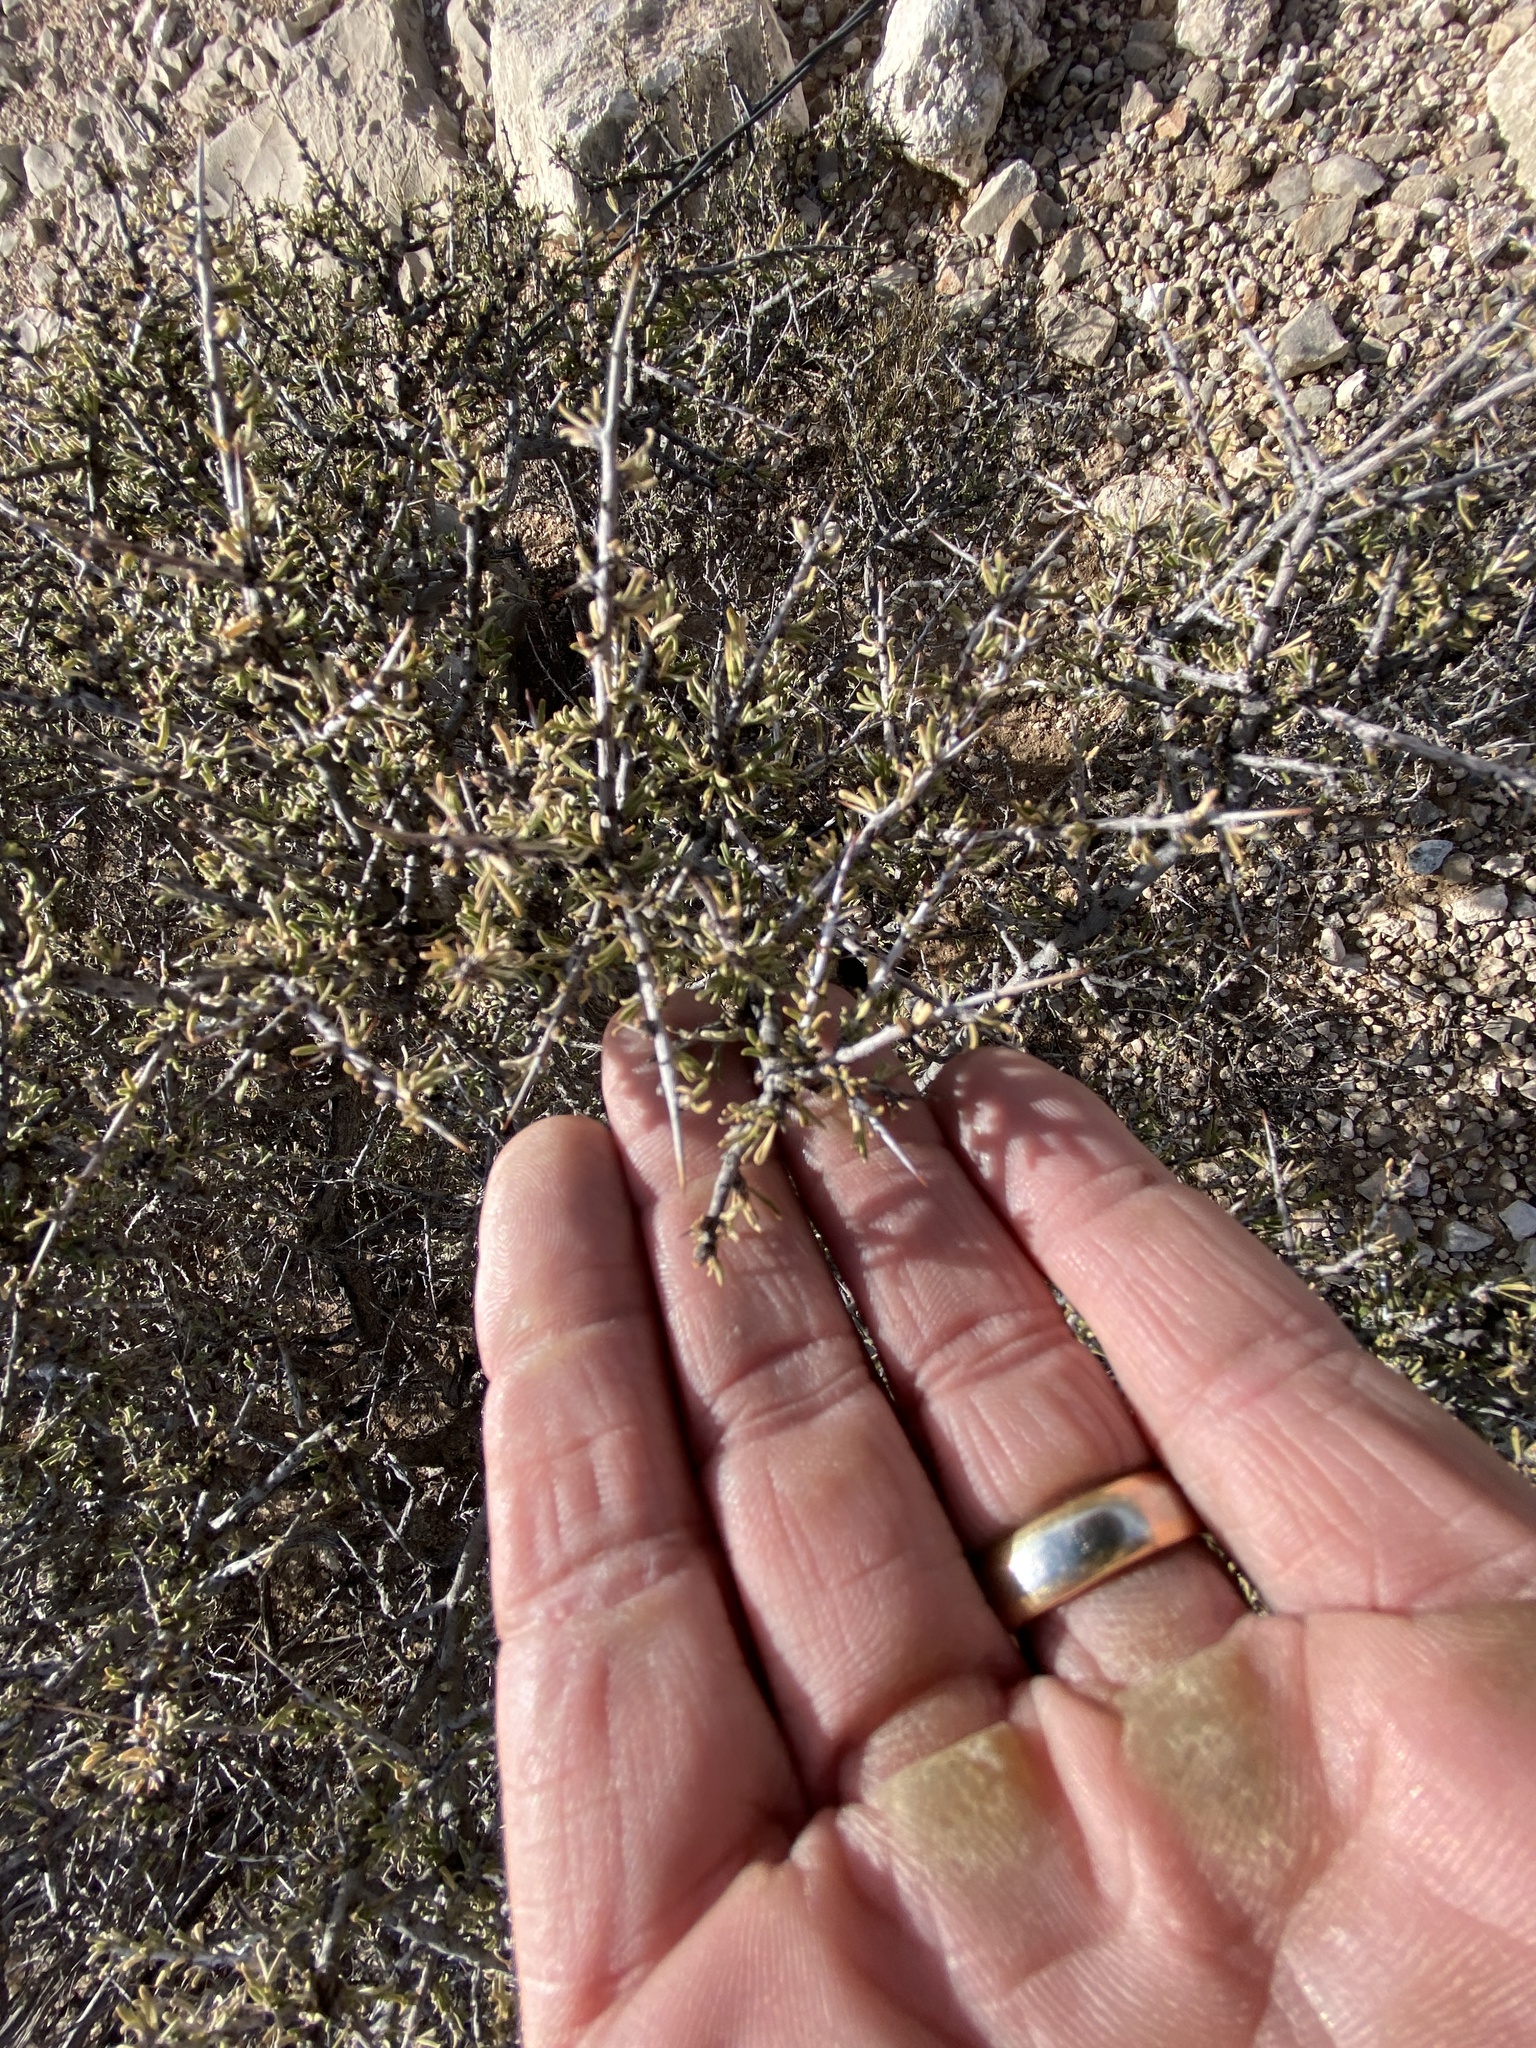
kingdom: Plantae
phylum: Tracheophyta
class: Magnoliopsida
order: Rosales
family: Rhamnaceae
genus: Condalia
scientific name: Condalia ericoides
